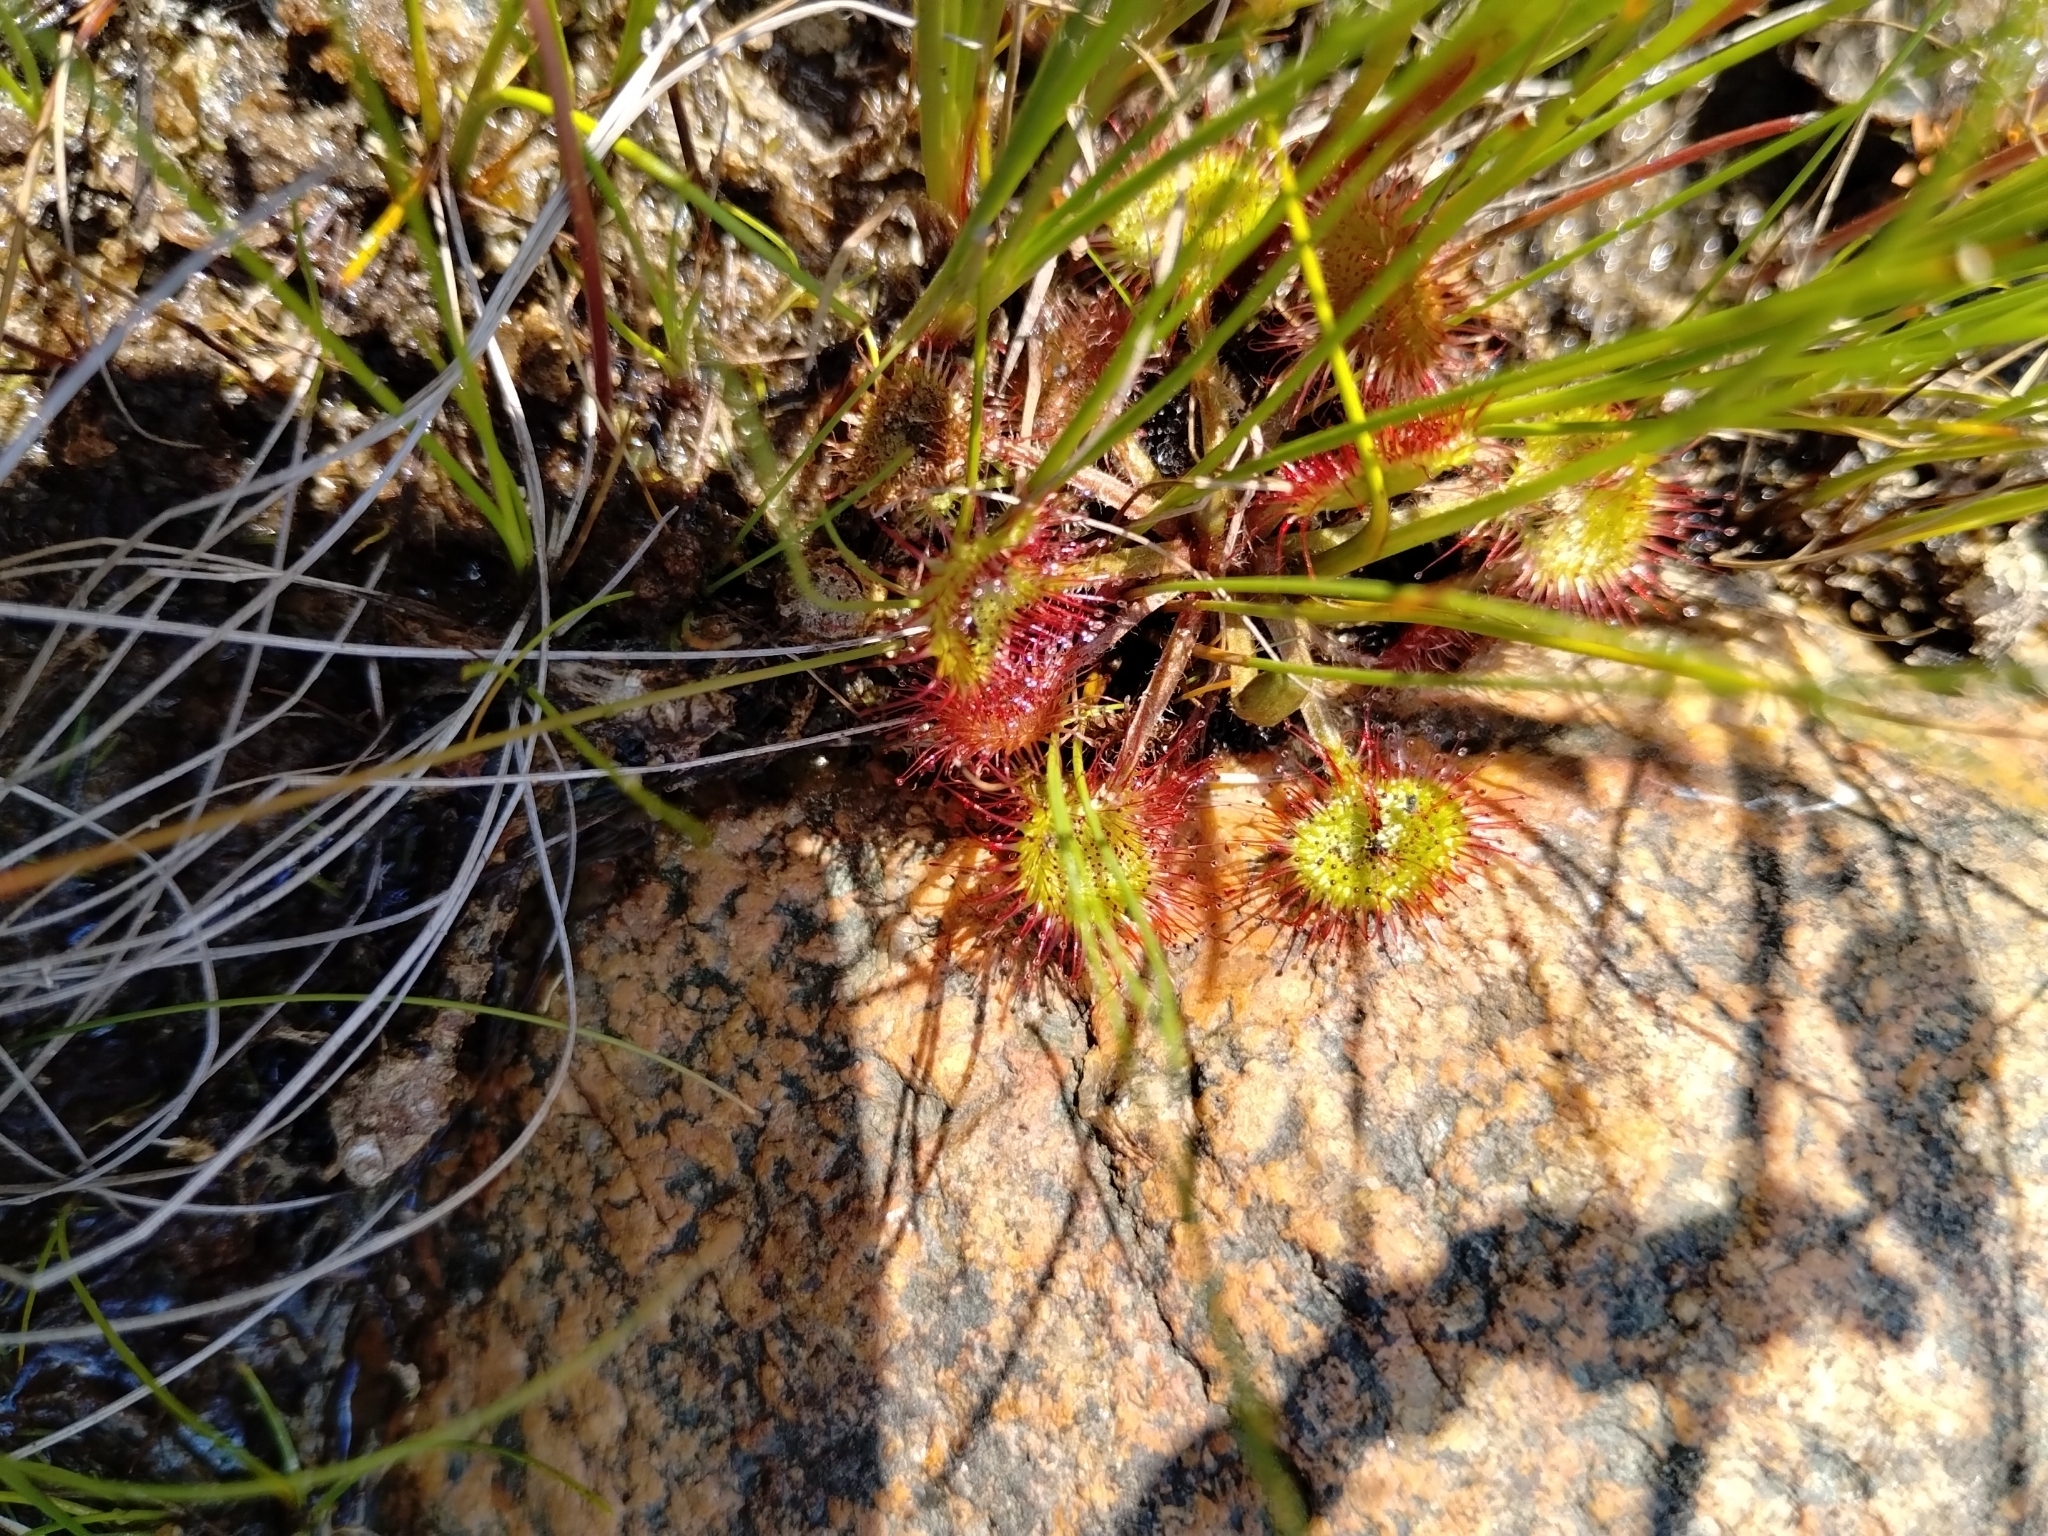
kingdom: Plantae
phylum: Tracheophyta
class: Magnoliopsida
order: Caryophyllales
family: Droseraceae
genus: Drosera
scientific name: Drosera rotundifolia
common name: Round-leaved sundew
